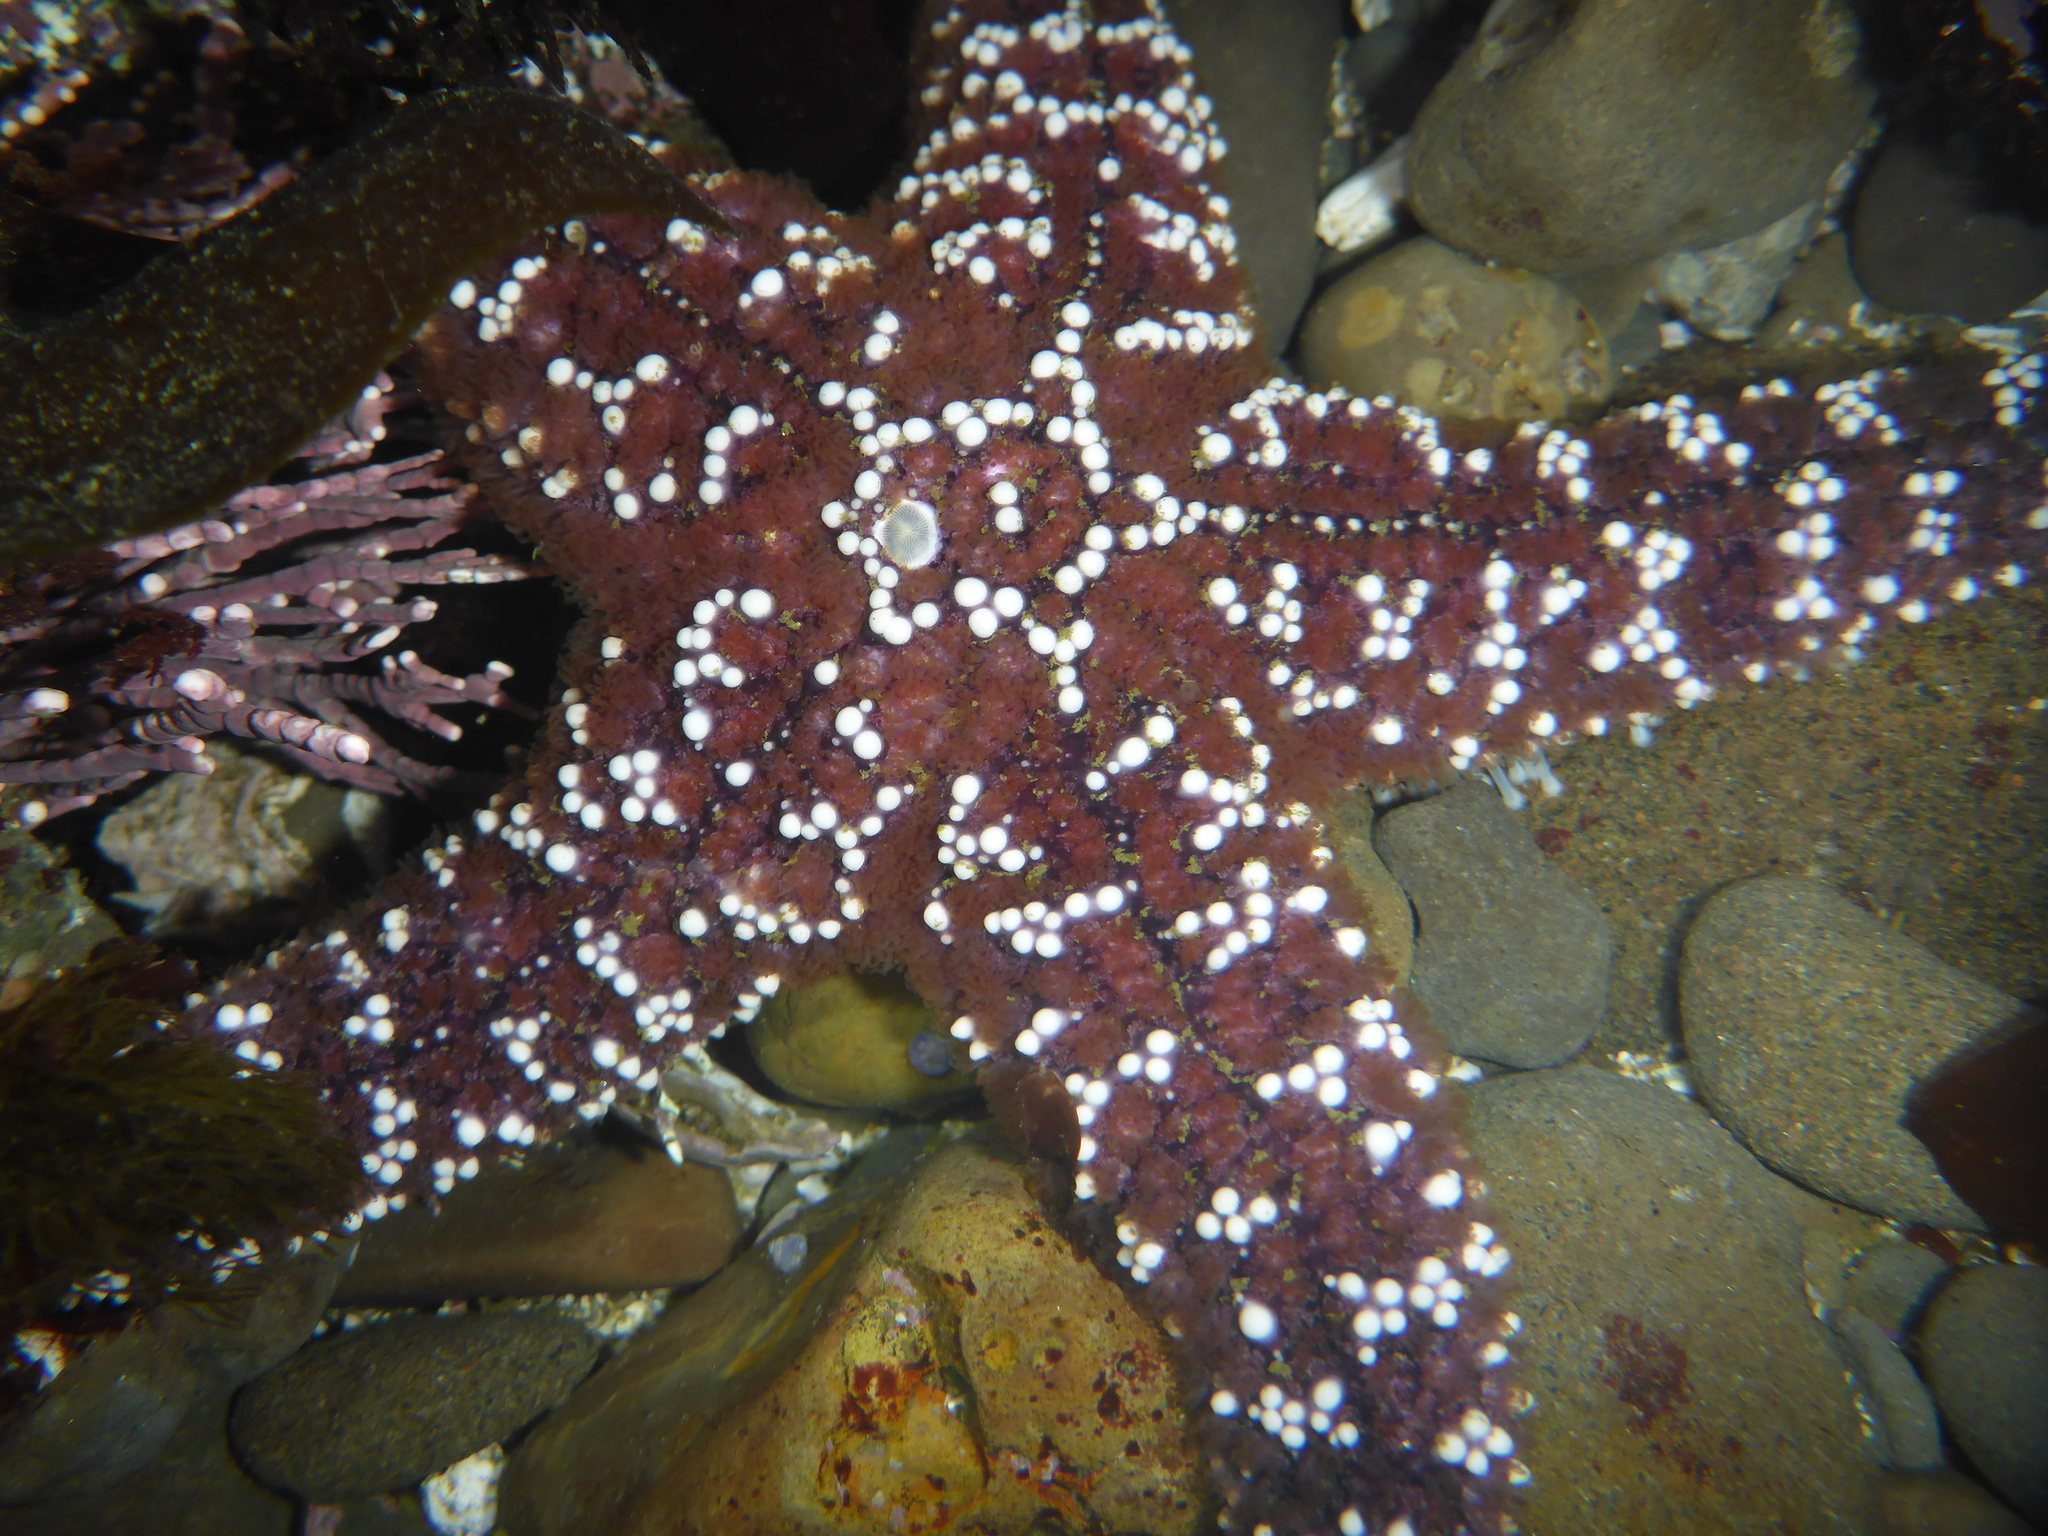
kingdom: Animalia
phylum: Echinodermata
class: Asteroidea
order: Forcipulatida
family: Asteriidae
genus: Pisaster
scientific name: Pisaster ochraceus
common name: Ochre stars
